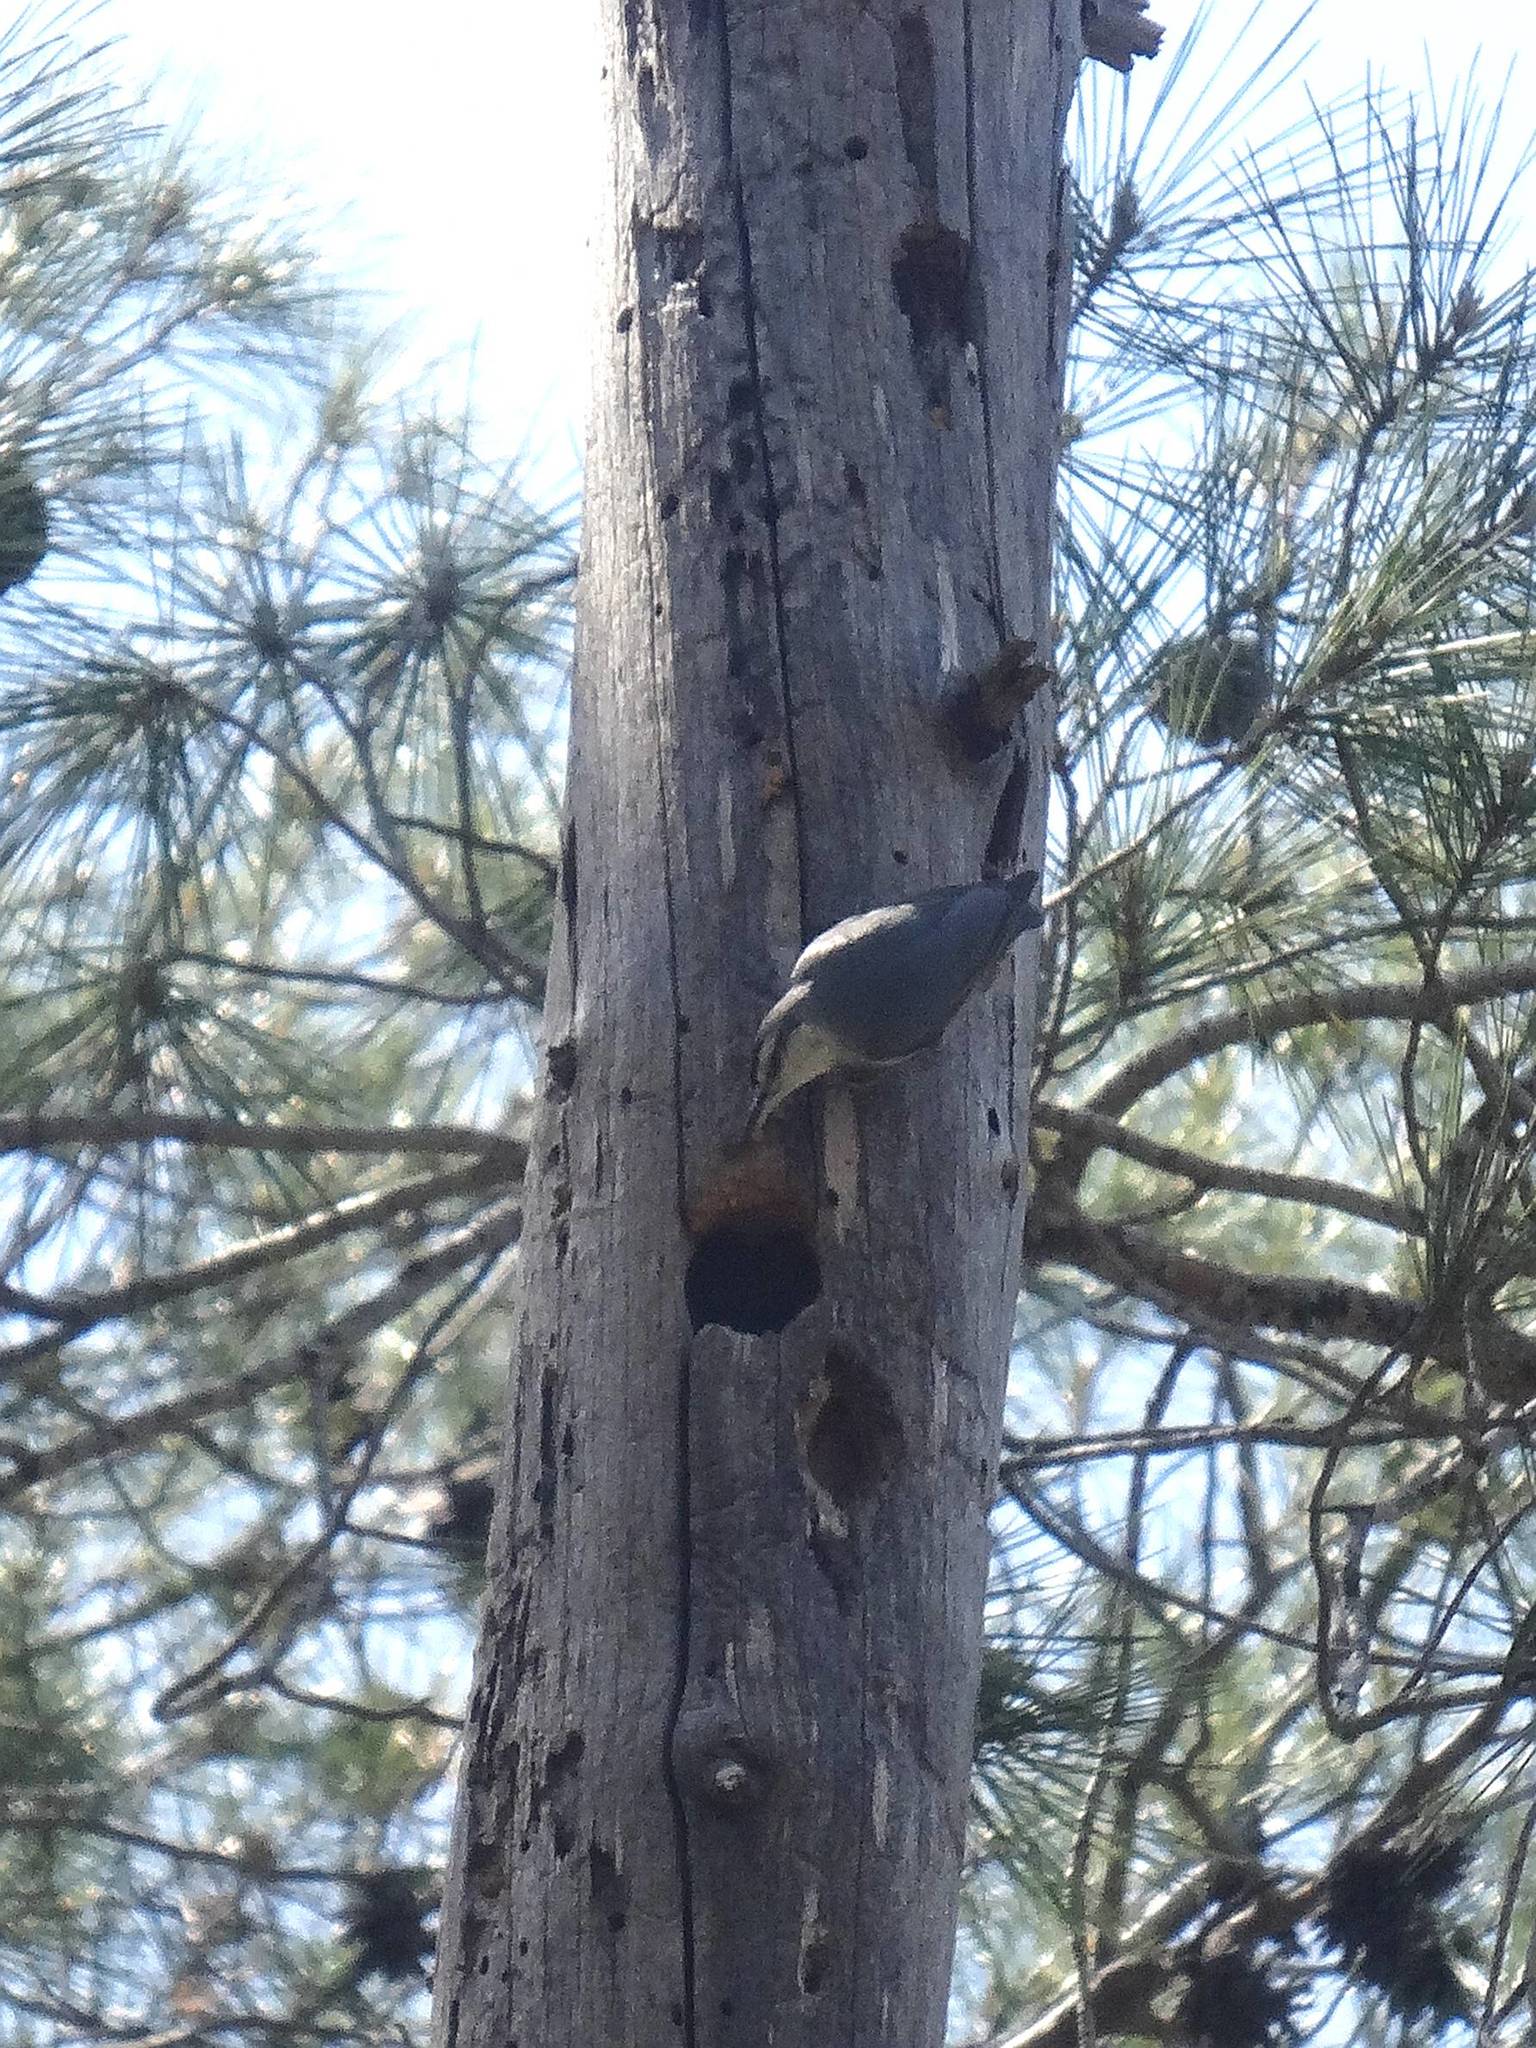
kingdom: Animalia
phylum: Chordata
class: Aves
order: Passeriformes
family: Sittidae
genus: Sitta
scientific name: Sitta krueperi
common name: Krüper's nuthatch
